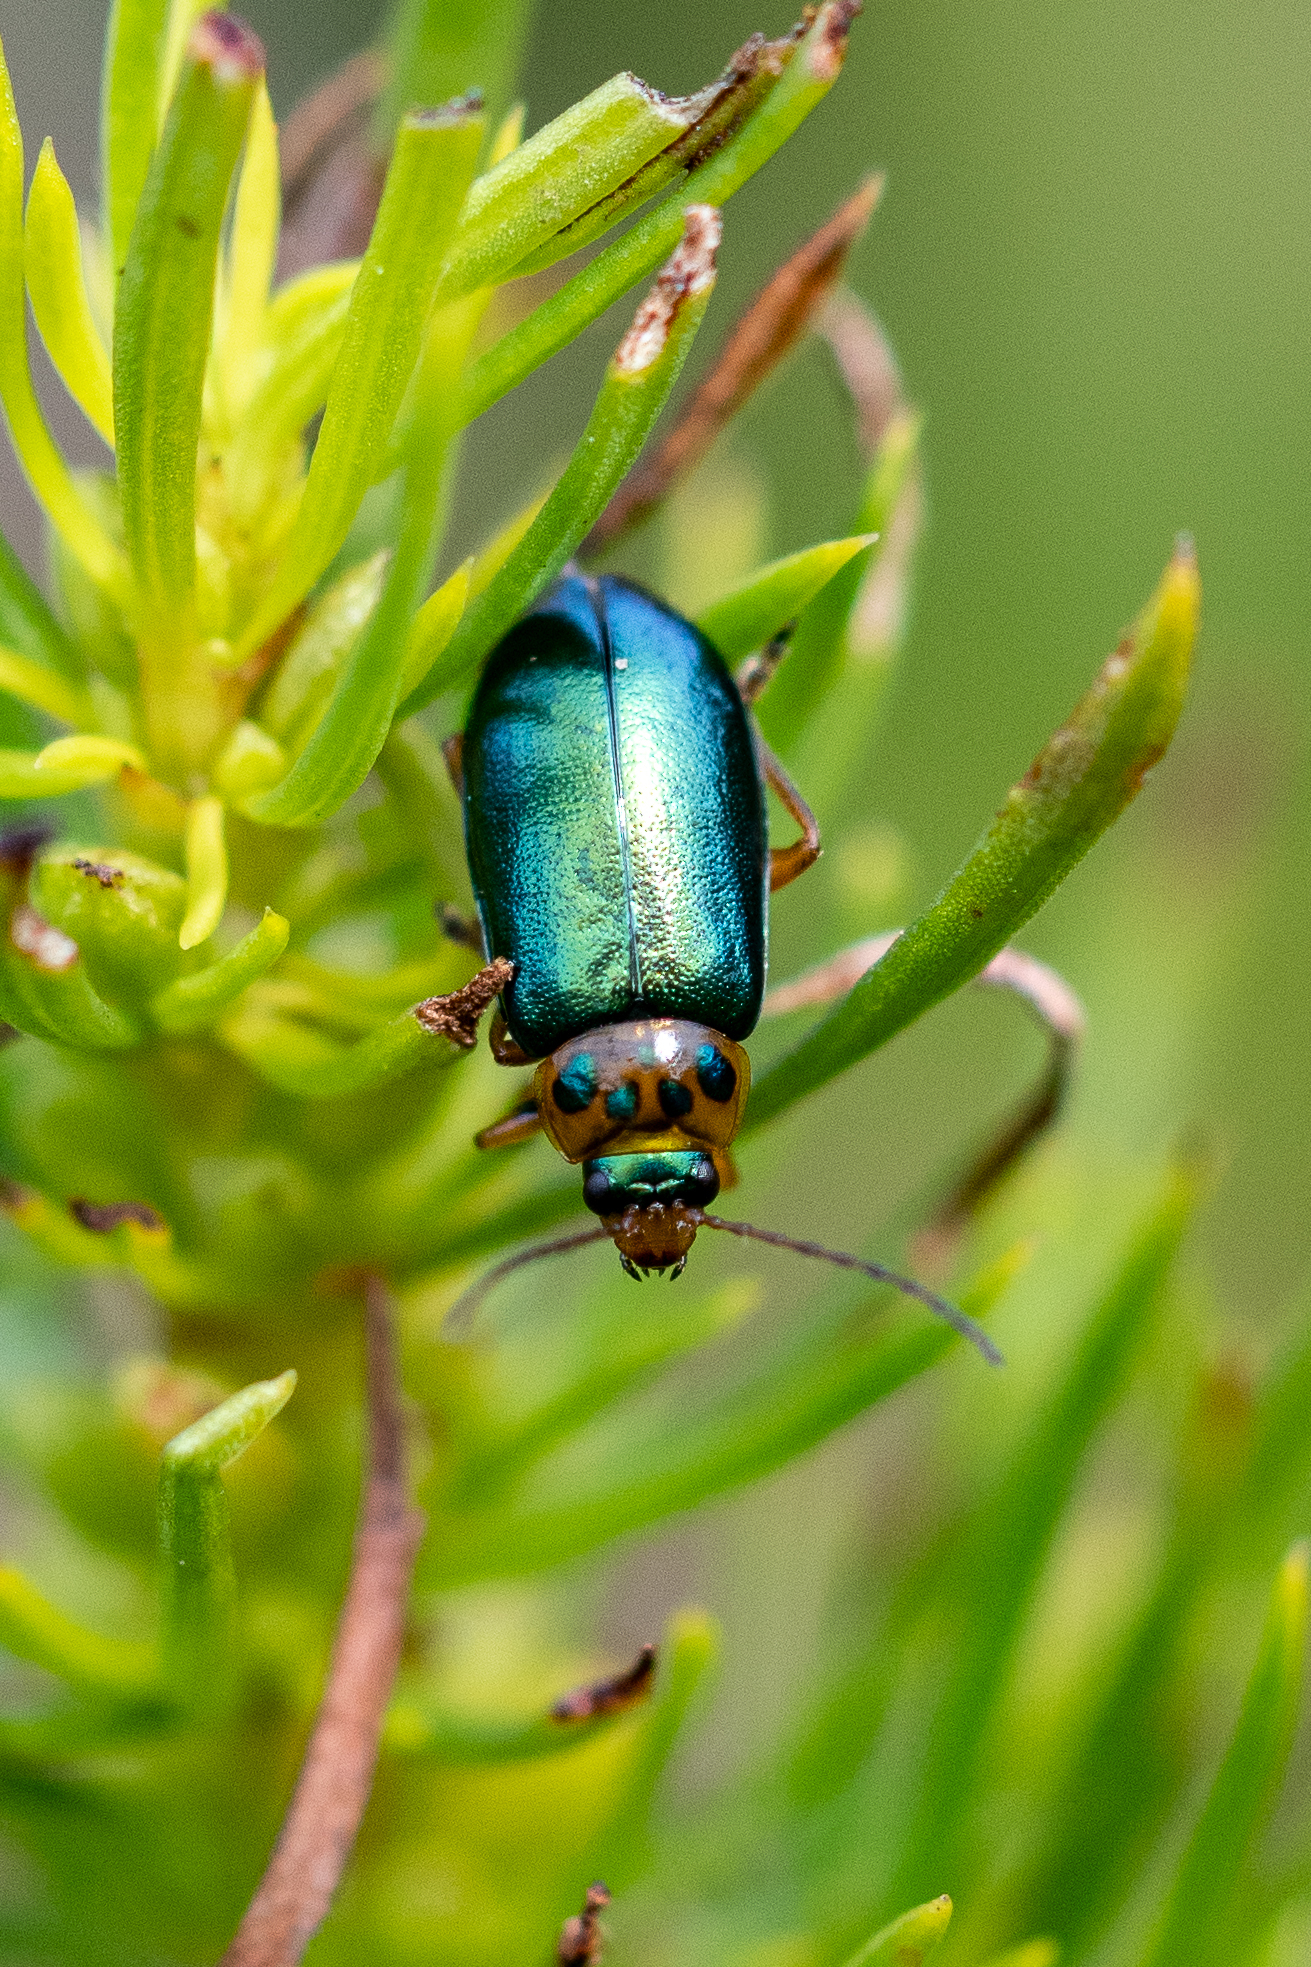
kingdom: Animalia
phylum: Arthropoda
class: Insecta
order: Coleoptera
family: Chrysomelidae
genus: Palaeophylia
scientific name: Palaeophylia
